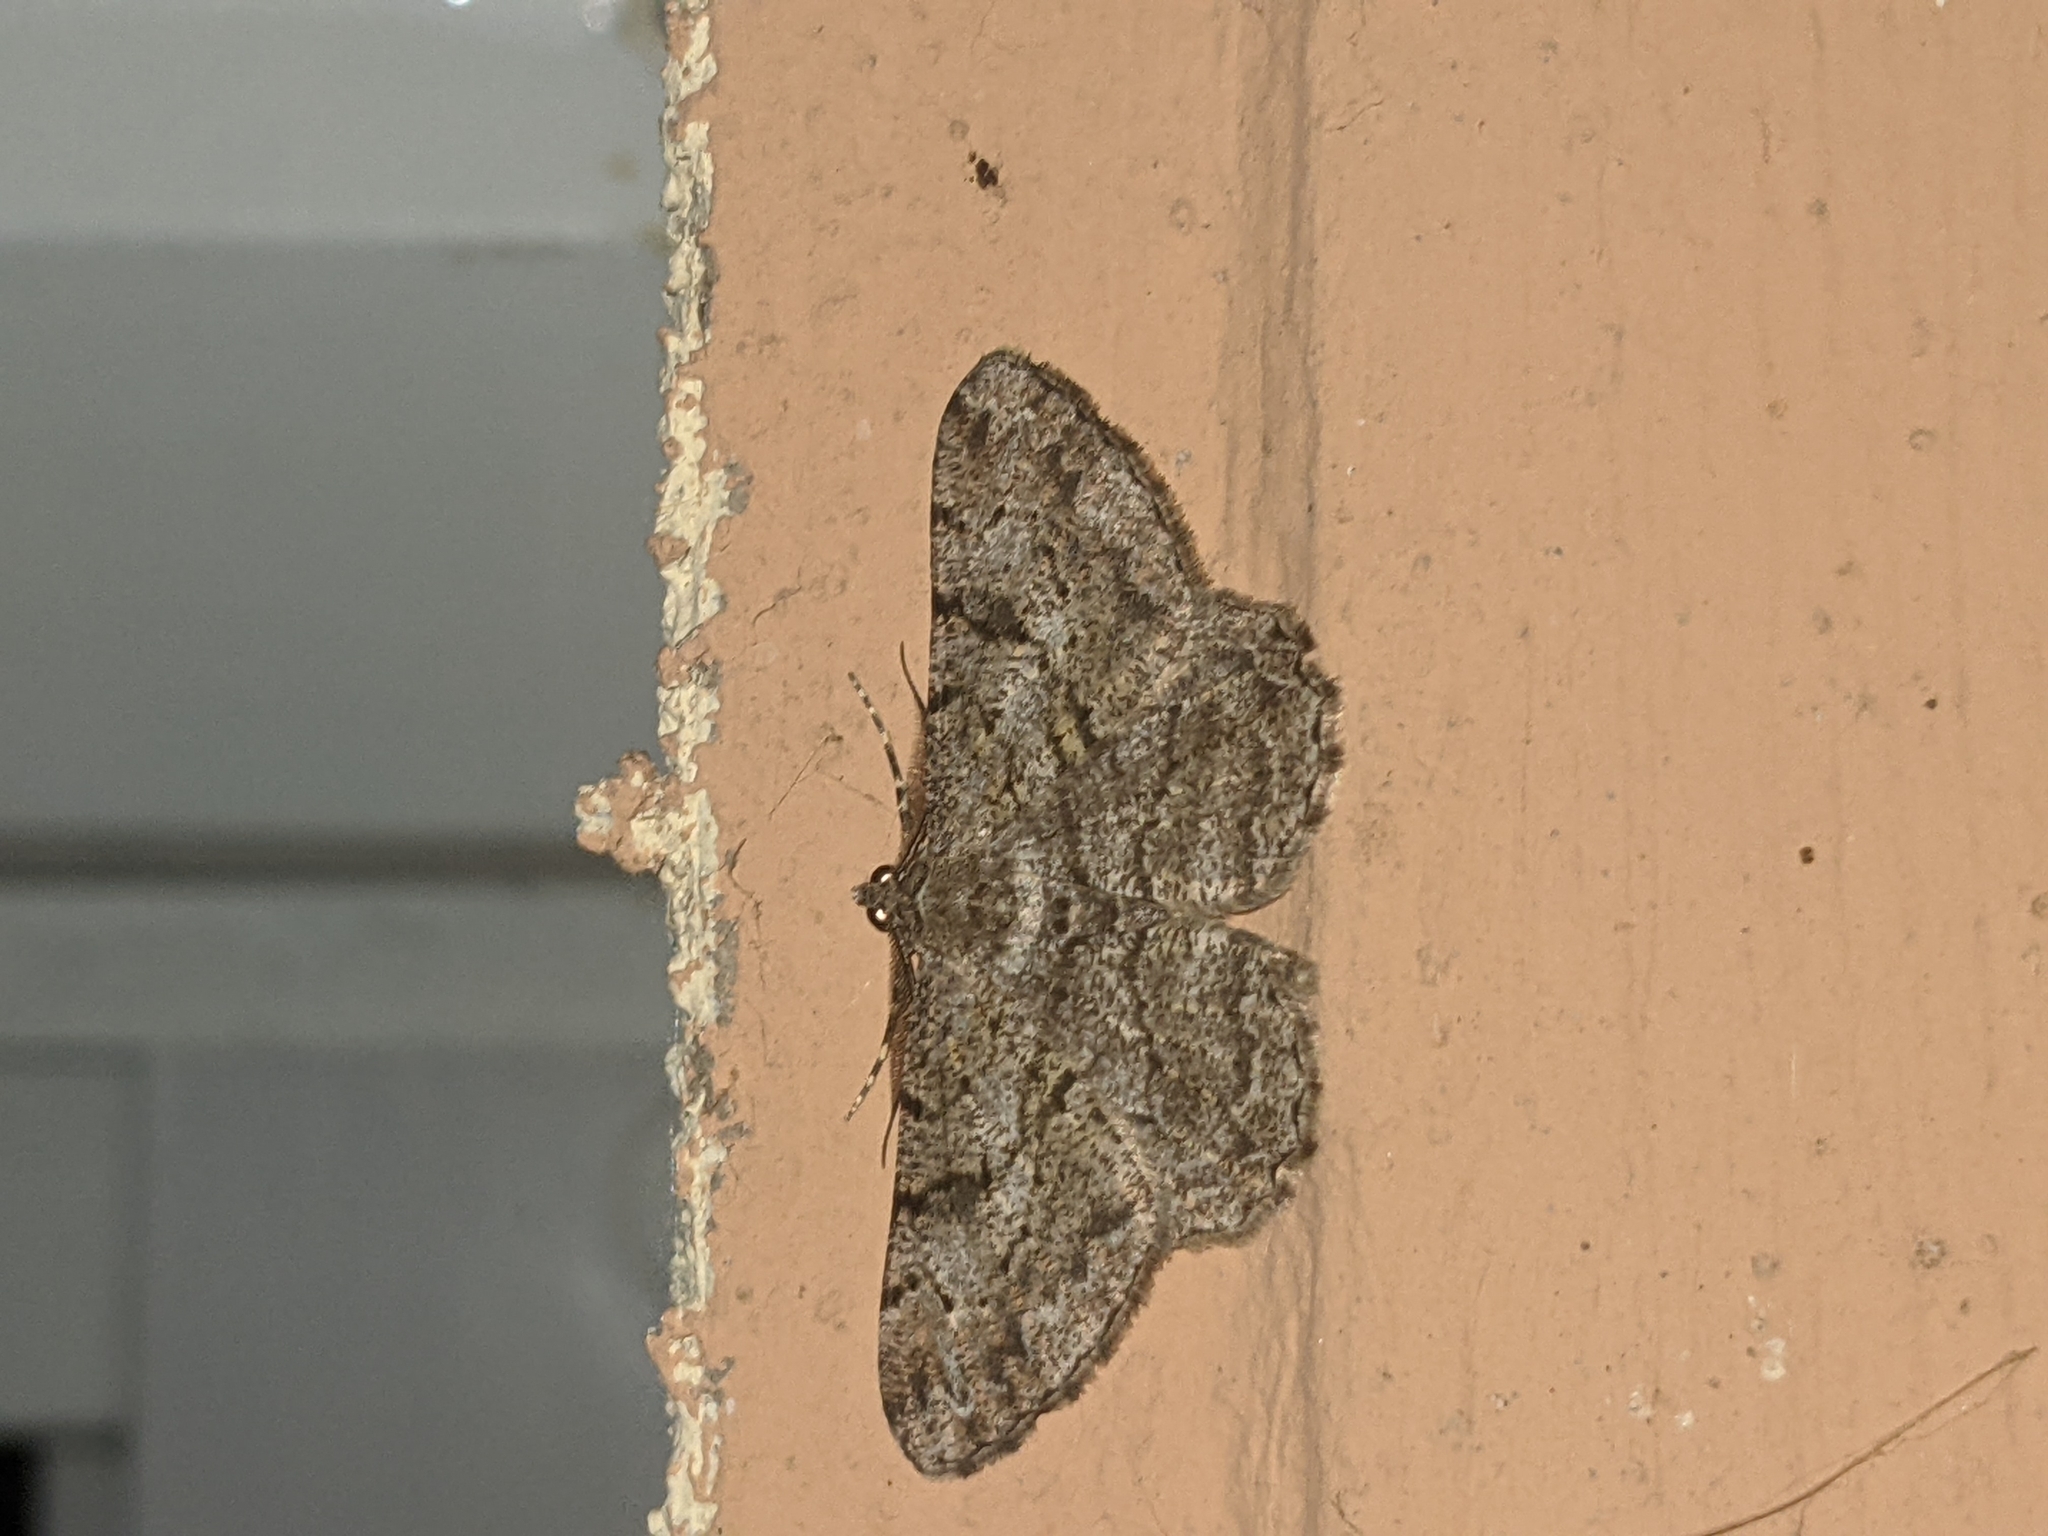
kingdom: Animalia
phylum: Arthropoda
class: Insecta
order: Lepidoptera
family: Geometridae
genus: Peribatodes
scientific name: Peribatodes rhomboidaria
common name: Willow beauty
